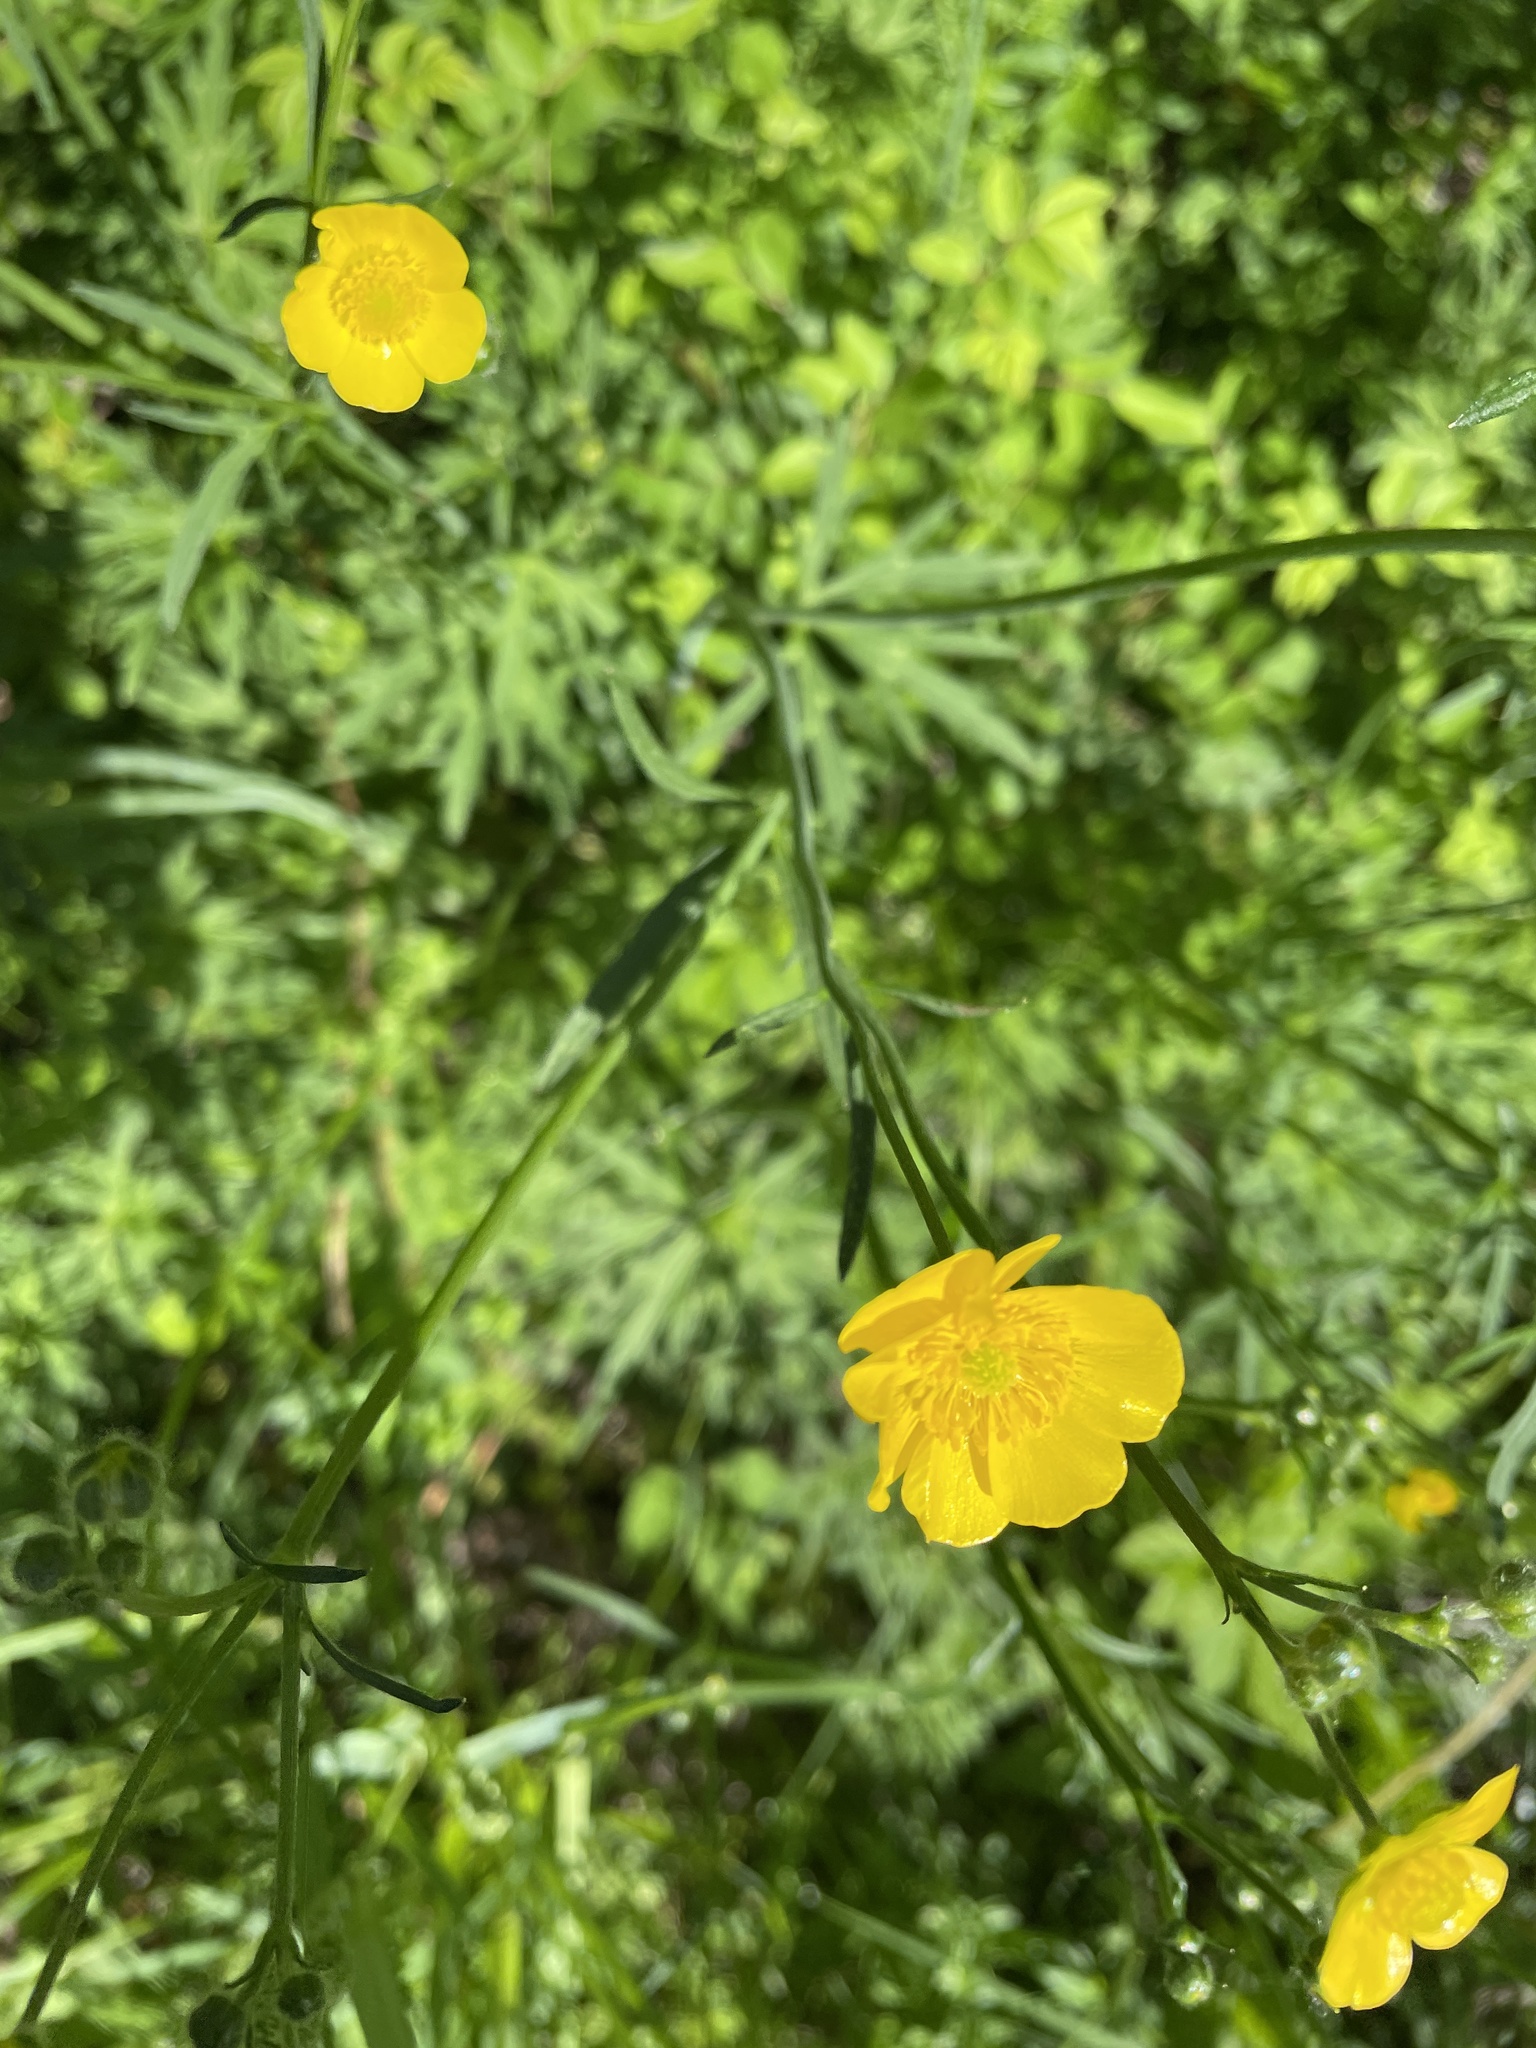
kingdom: Plantae
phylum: Tracheophyta
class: Magnoliopsida
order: Ranunculales
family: Ranunculaceae
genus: Ranunculus
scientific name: Ranunculus acris
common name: Meadow buttercup
